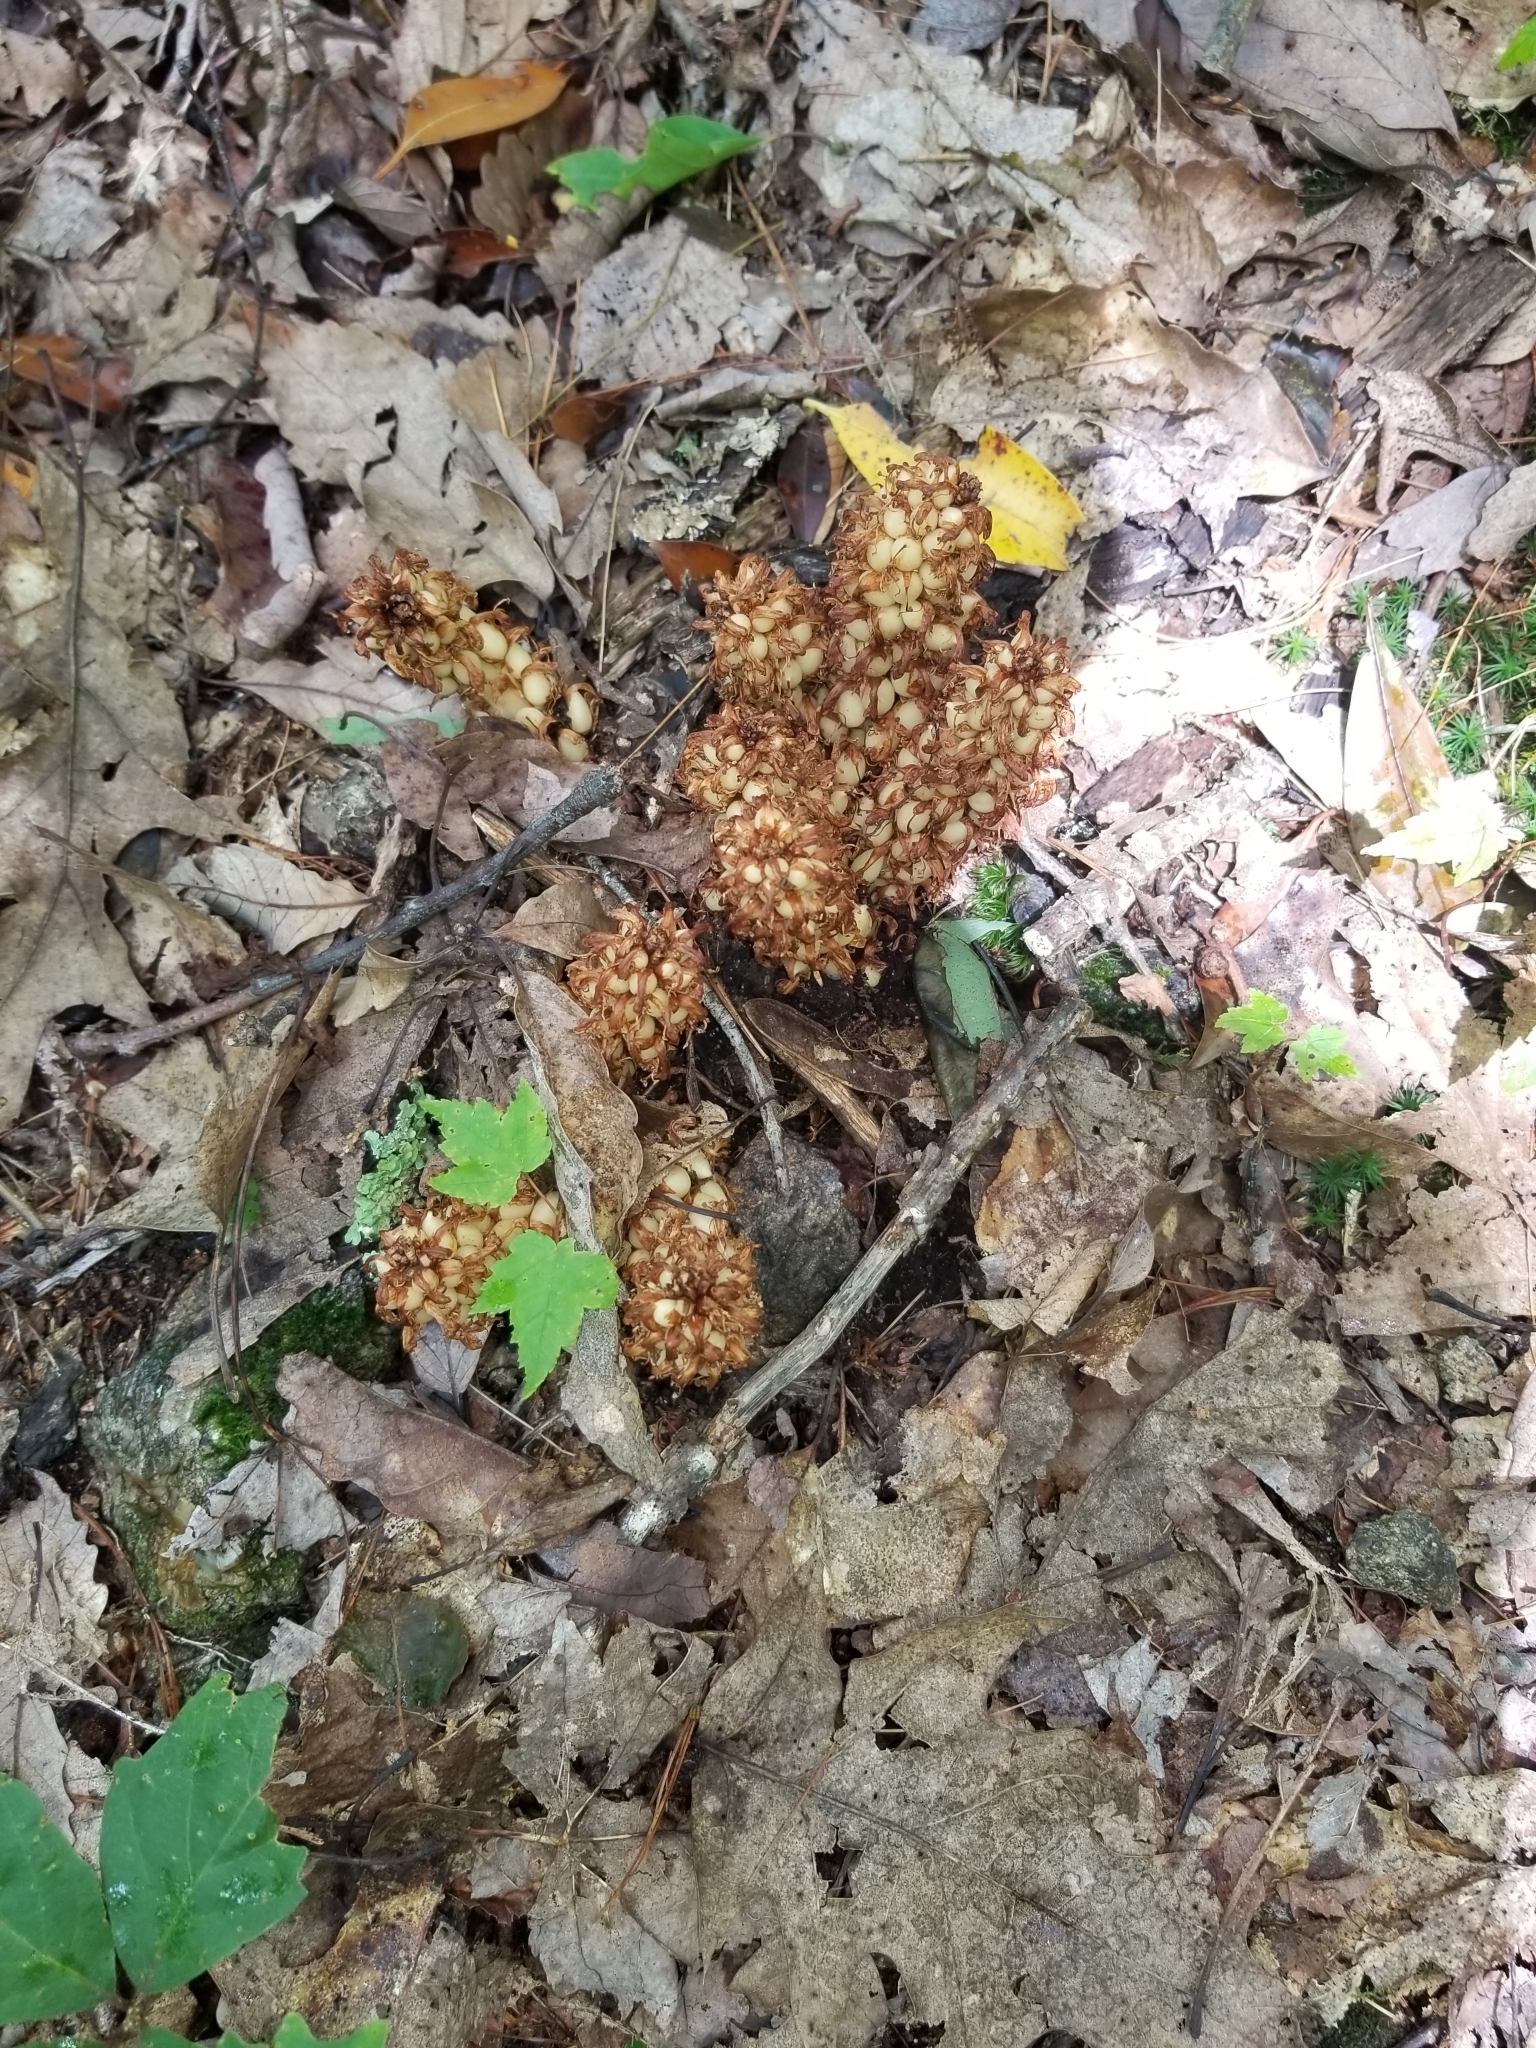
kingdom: Plantae
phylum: Tracheophyta
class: Magnoliopsida
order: Lamiales
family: Orobanchaceae
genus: Conopholis
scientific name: Conopholis americana
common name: American cancer-root
